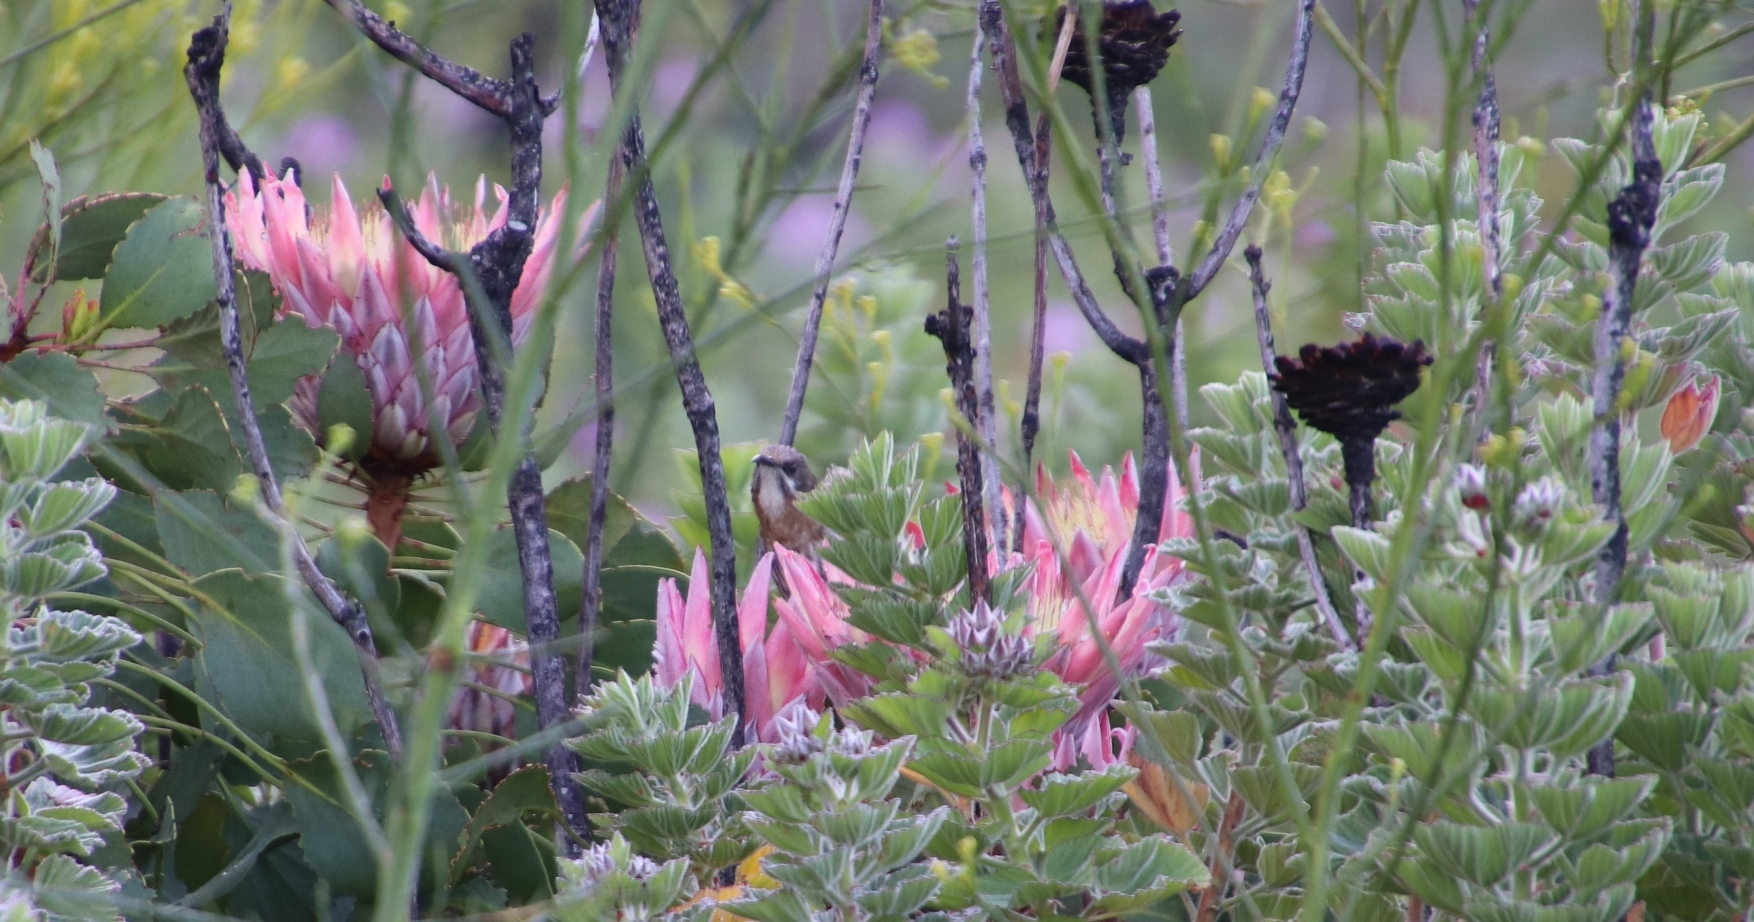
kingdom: Plantae
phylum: Tracheophyta
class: Magnoliopsida
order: Proteales
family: Proteaceae
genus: Protea
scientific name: Protea cynaroides
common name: King protea
